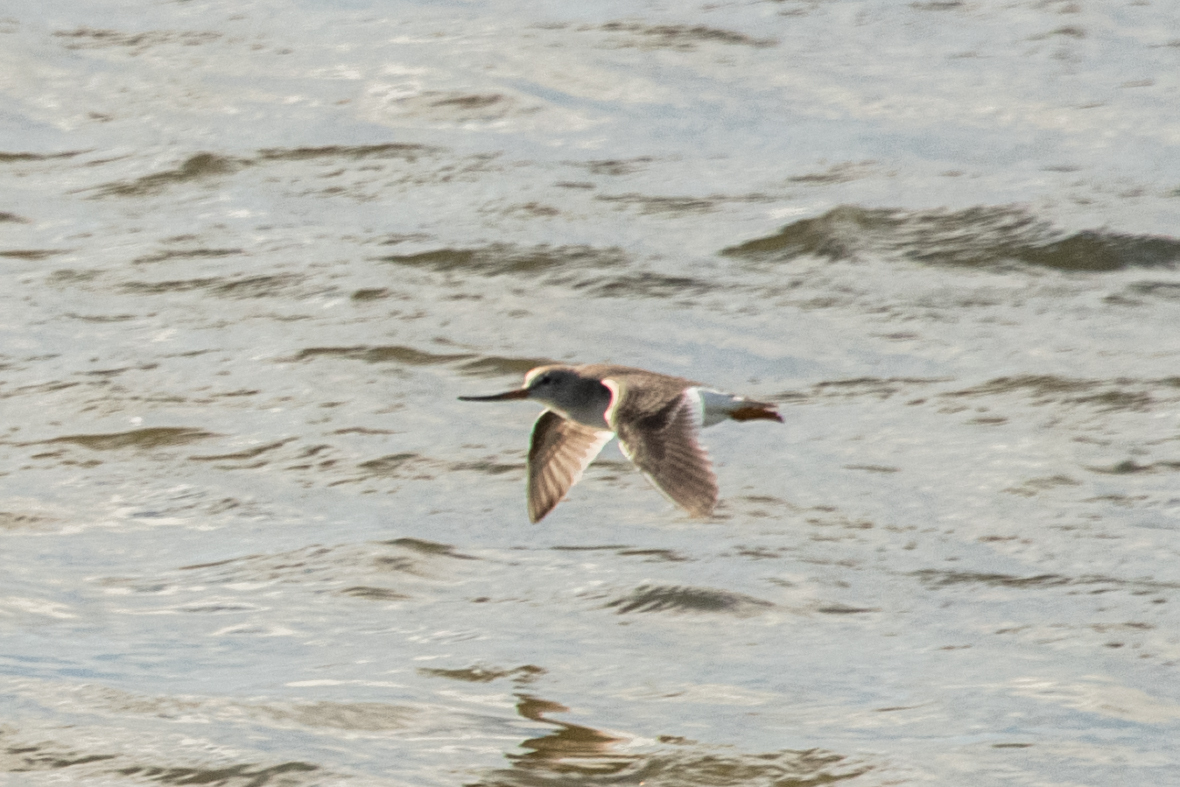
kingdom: Animalia
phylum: Chordata
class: Aves
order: Charadriiformes
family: Scolopacidae
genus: Xenus
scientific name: Xenus cinereus
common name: Terek sandpiper
